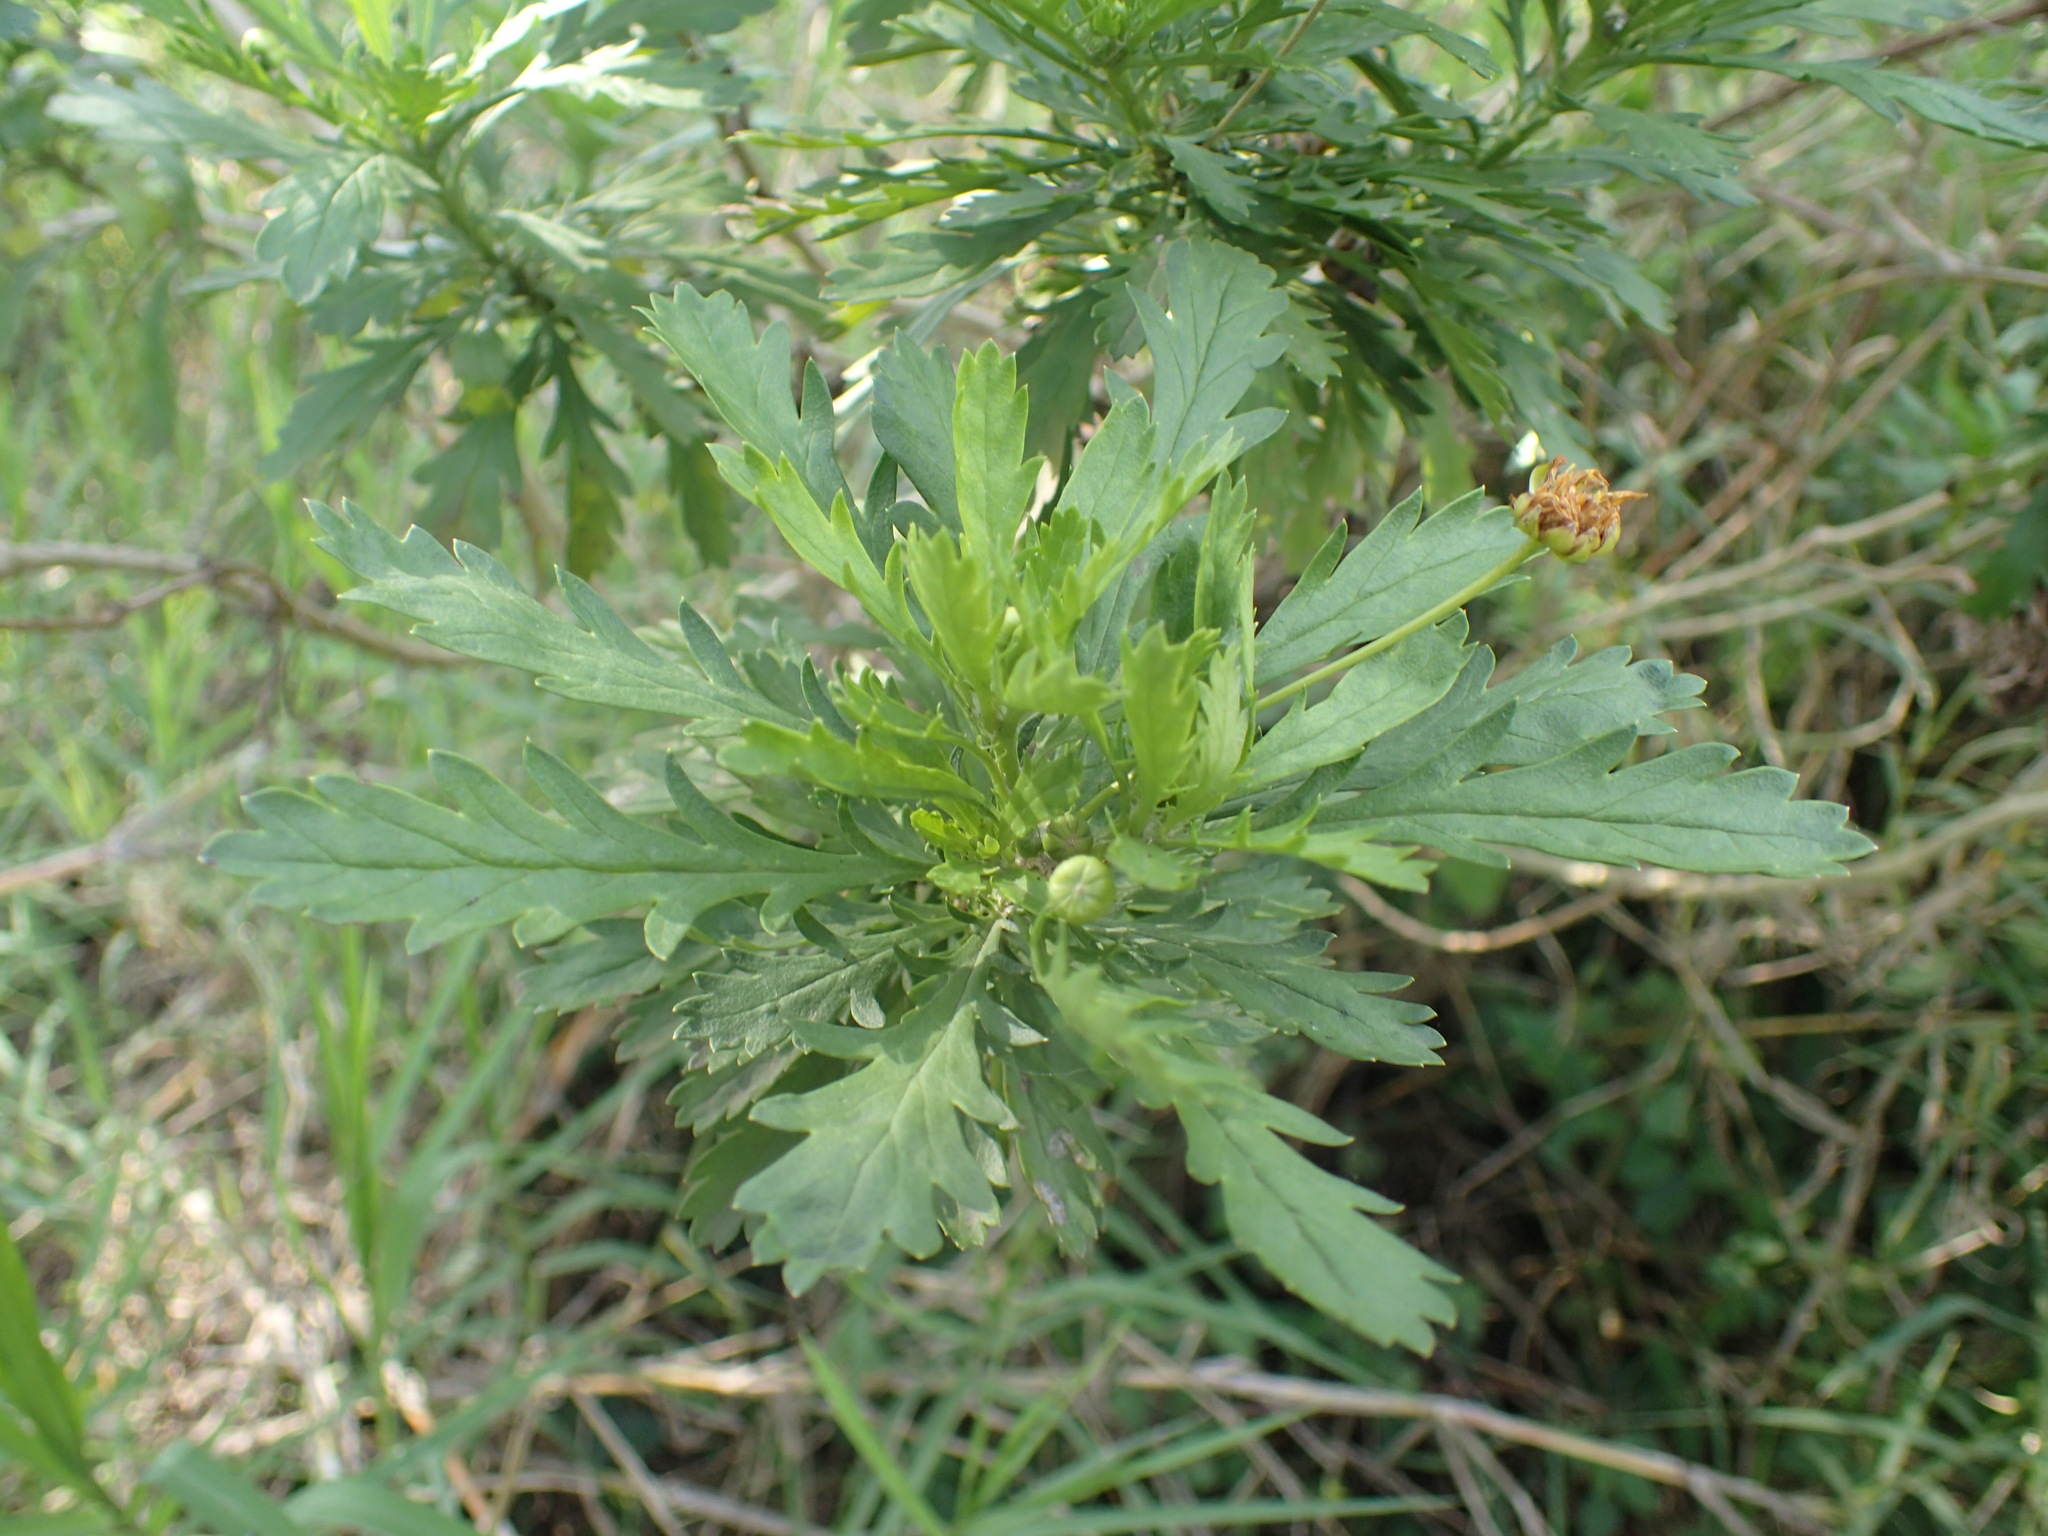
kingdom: Plantae
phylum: Tracheophyta
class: Magnoliopsida
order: Asterales
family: Asteraceae
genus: Euryops
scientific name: Euryops chrysanthemoides
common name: Bull's eye
